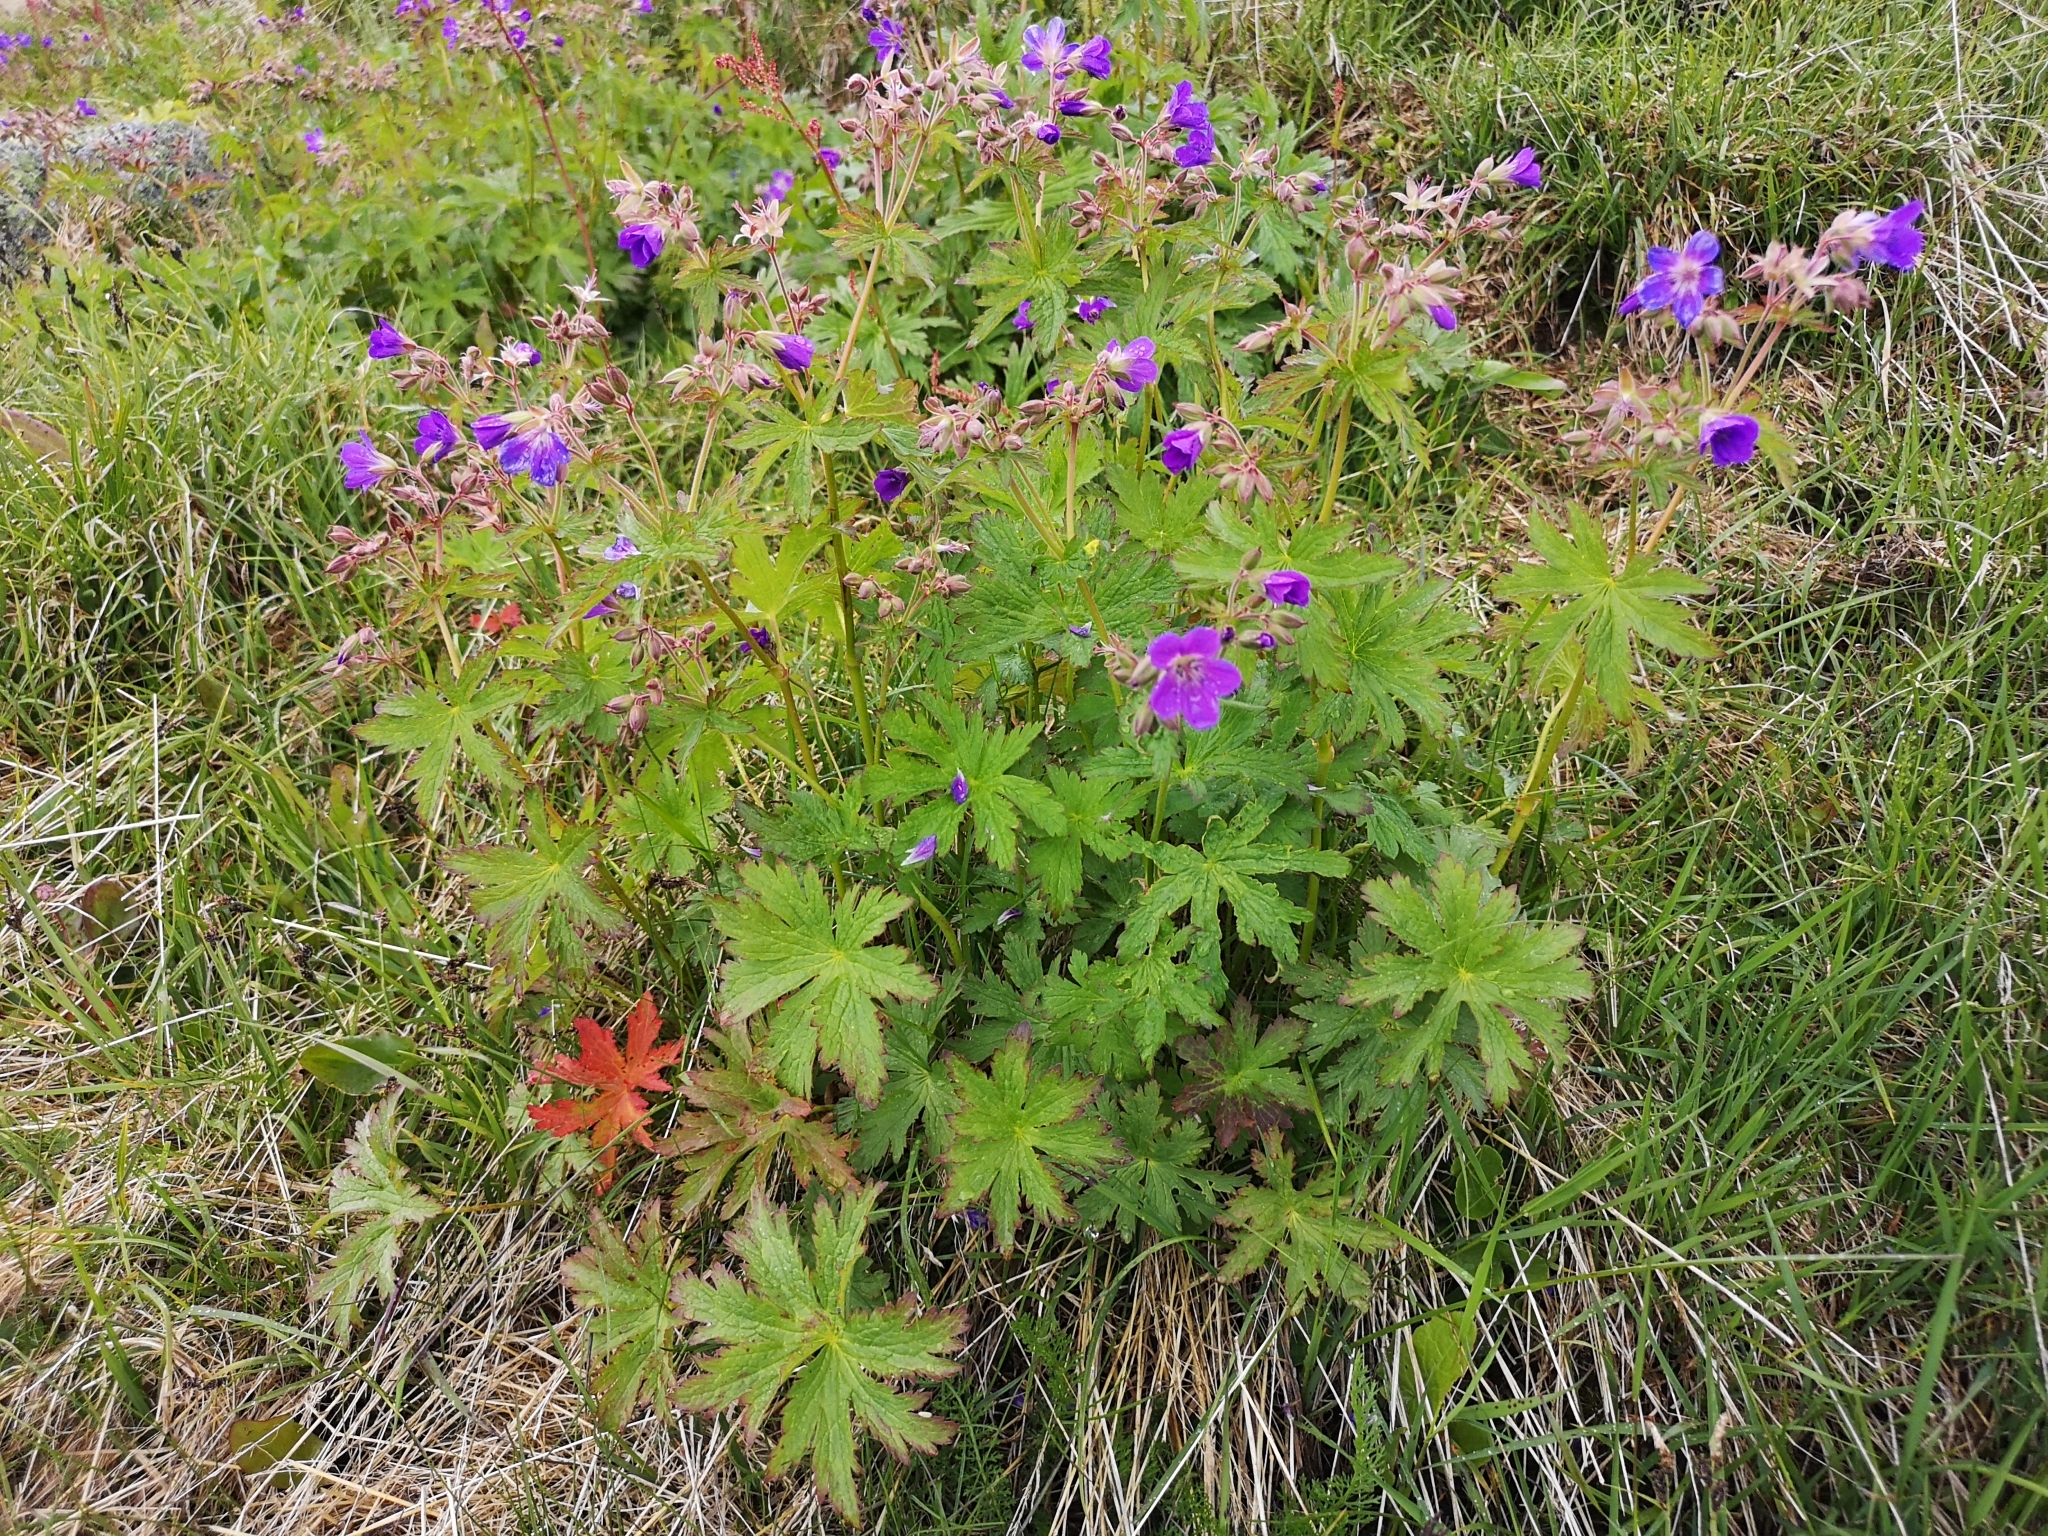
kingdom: Plantae
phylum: Tracheophyta
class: Magnoliopsida
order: Geraniales
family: Geraniaceae
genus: Geranium
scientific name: Geranium sylvaticum
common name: Wood crane's-bill
